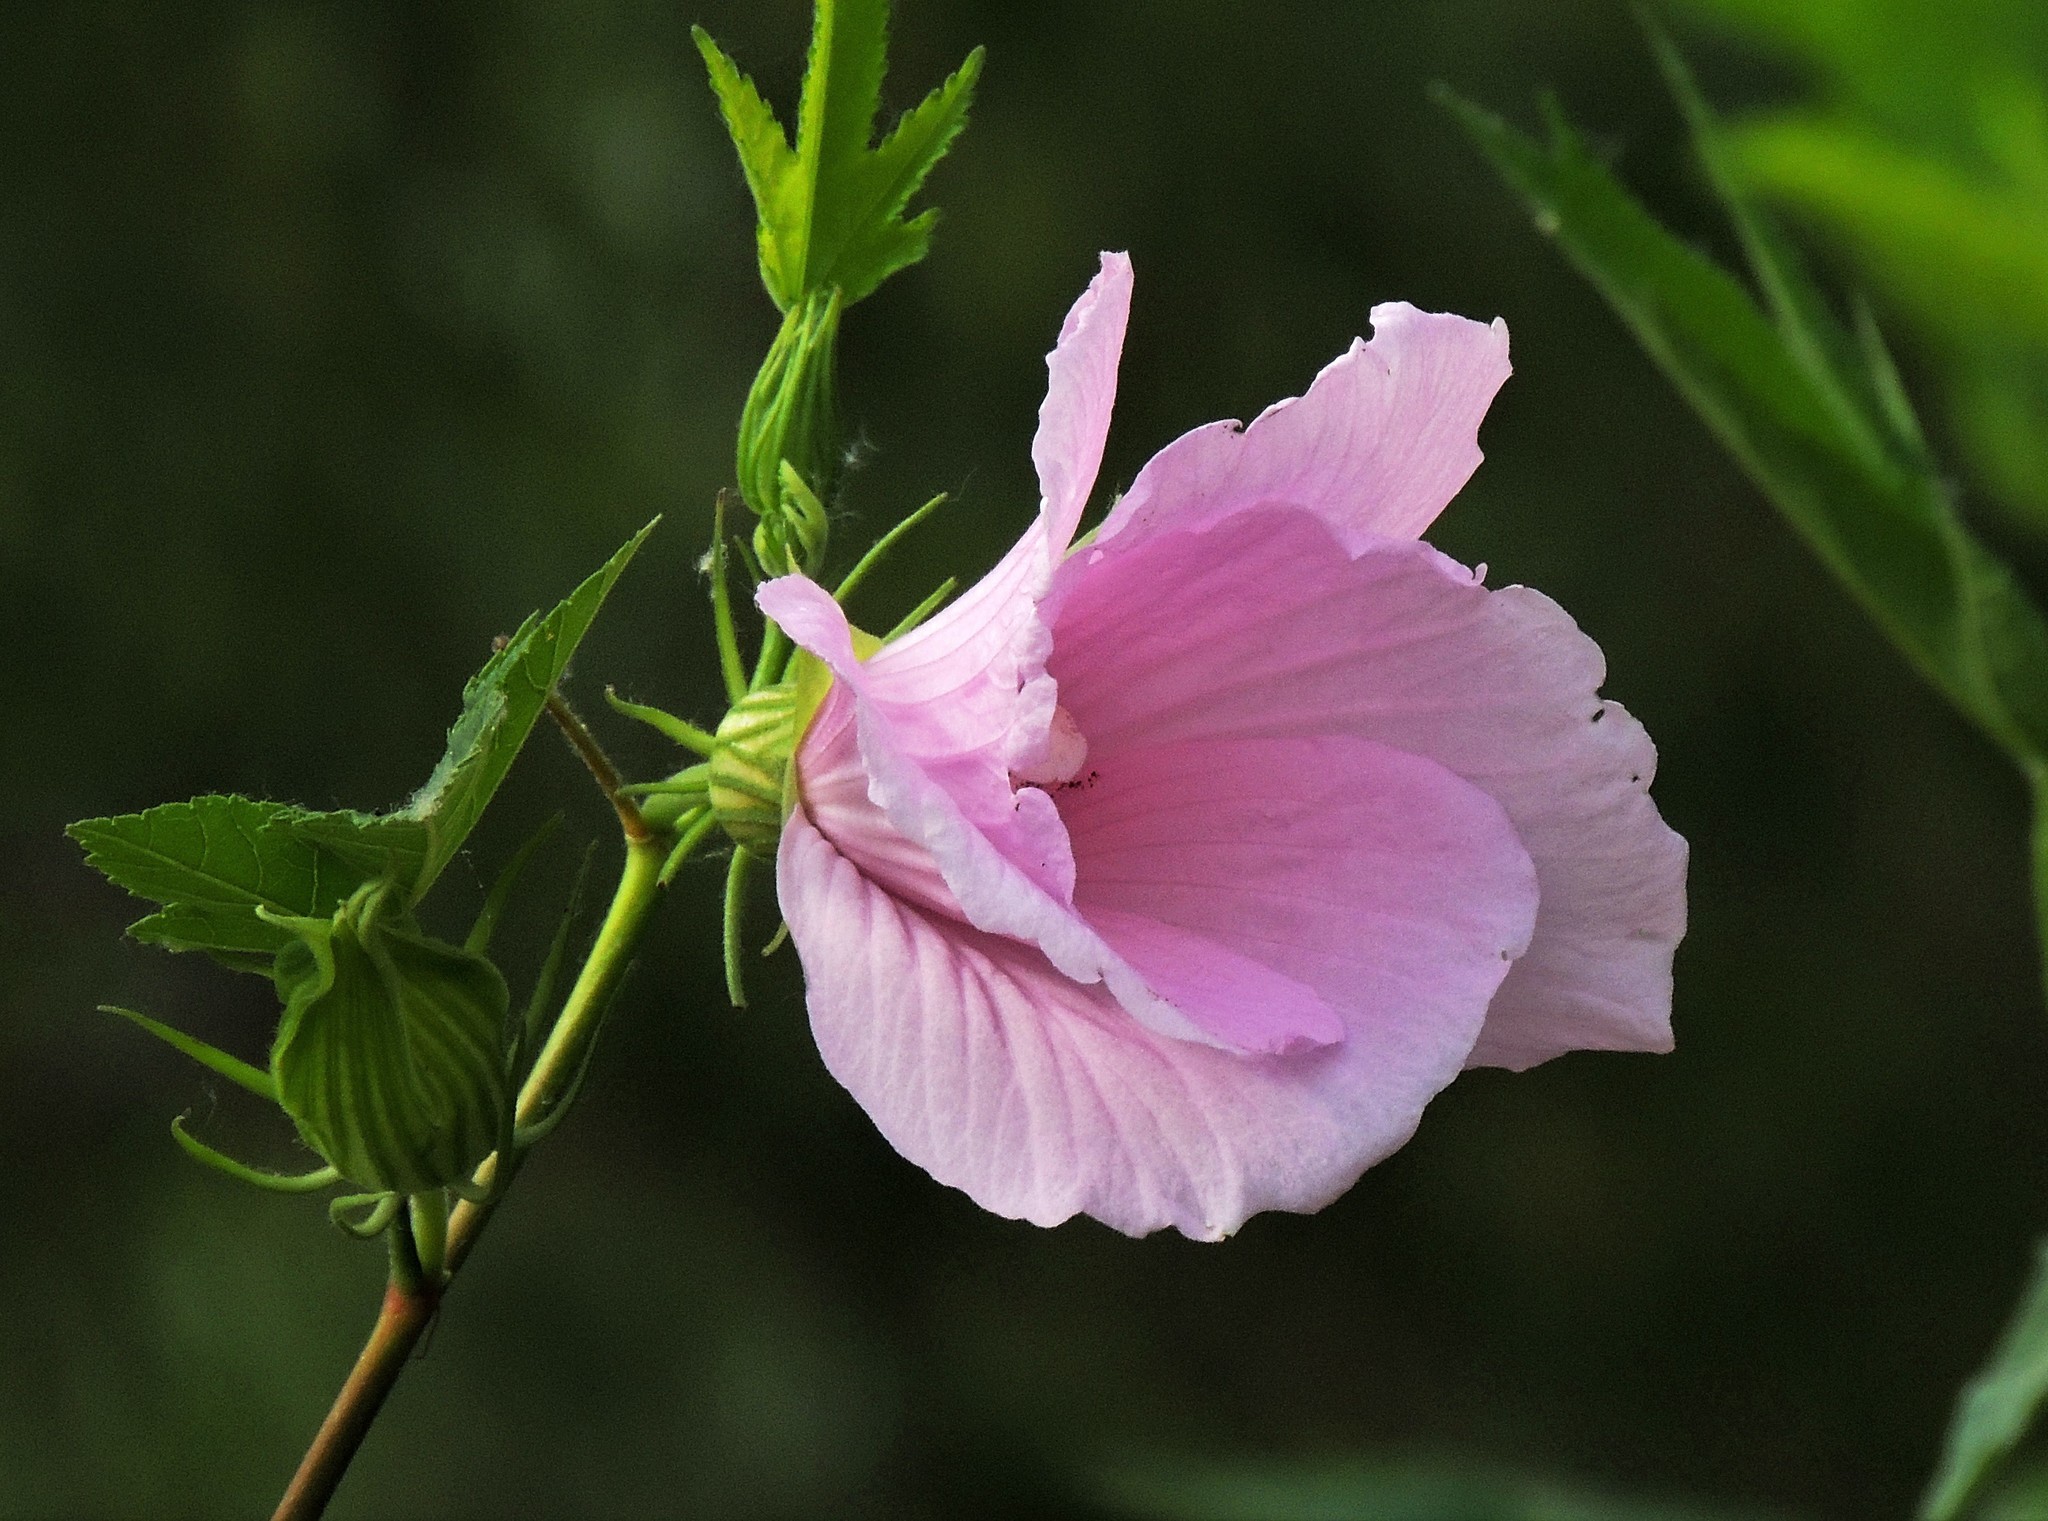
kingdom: Plantae
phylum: Tracheophyta
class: Magnoliopsida
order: Malvales
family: Malvaceae
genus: Hibiscus
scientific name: Hibiscus striatus
